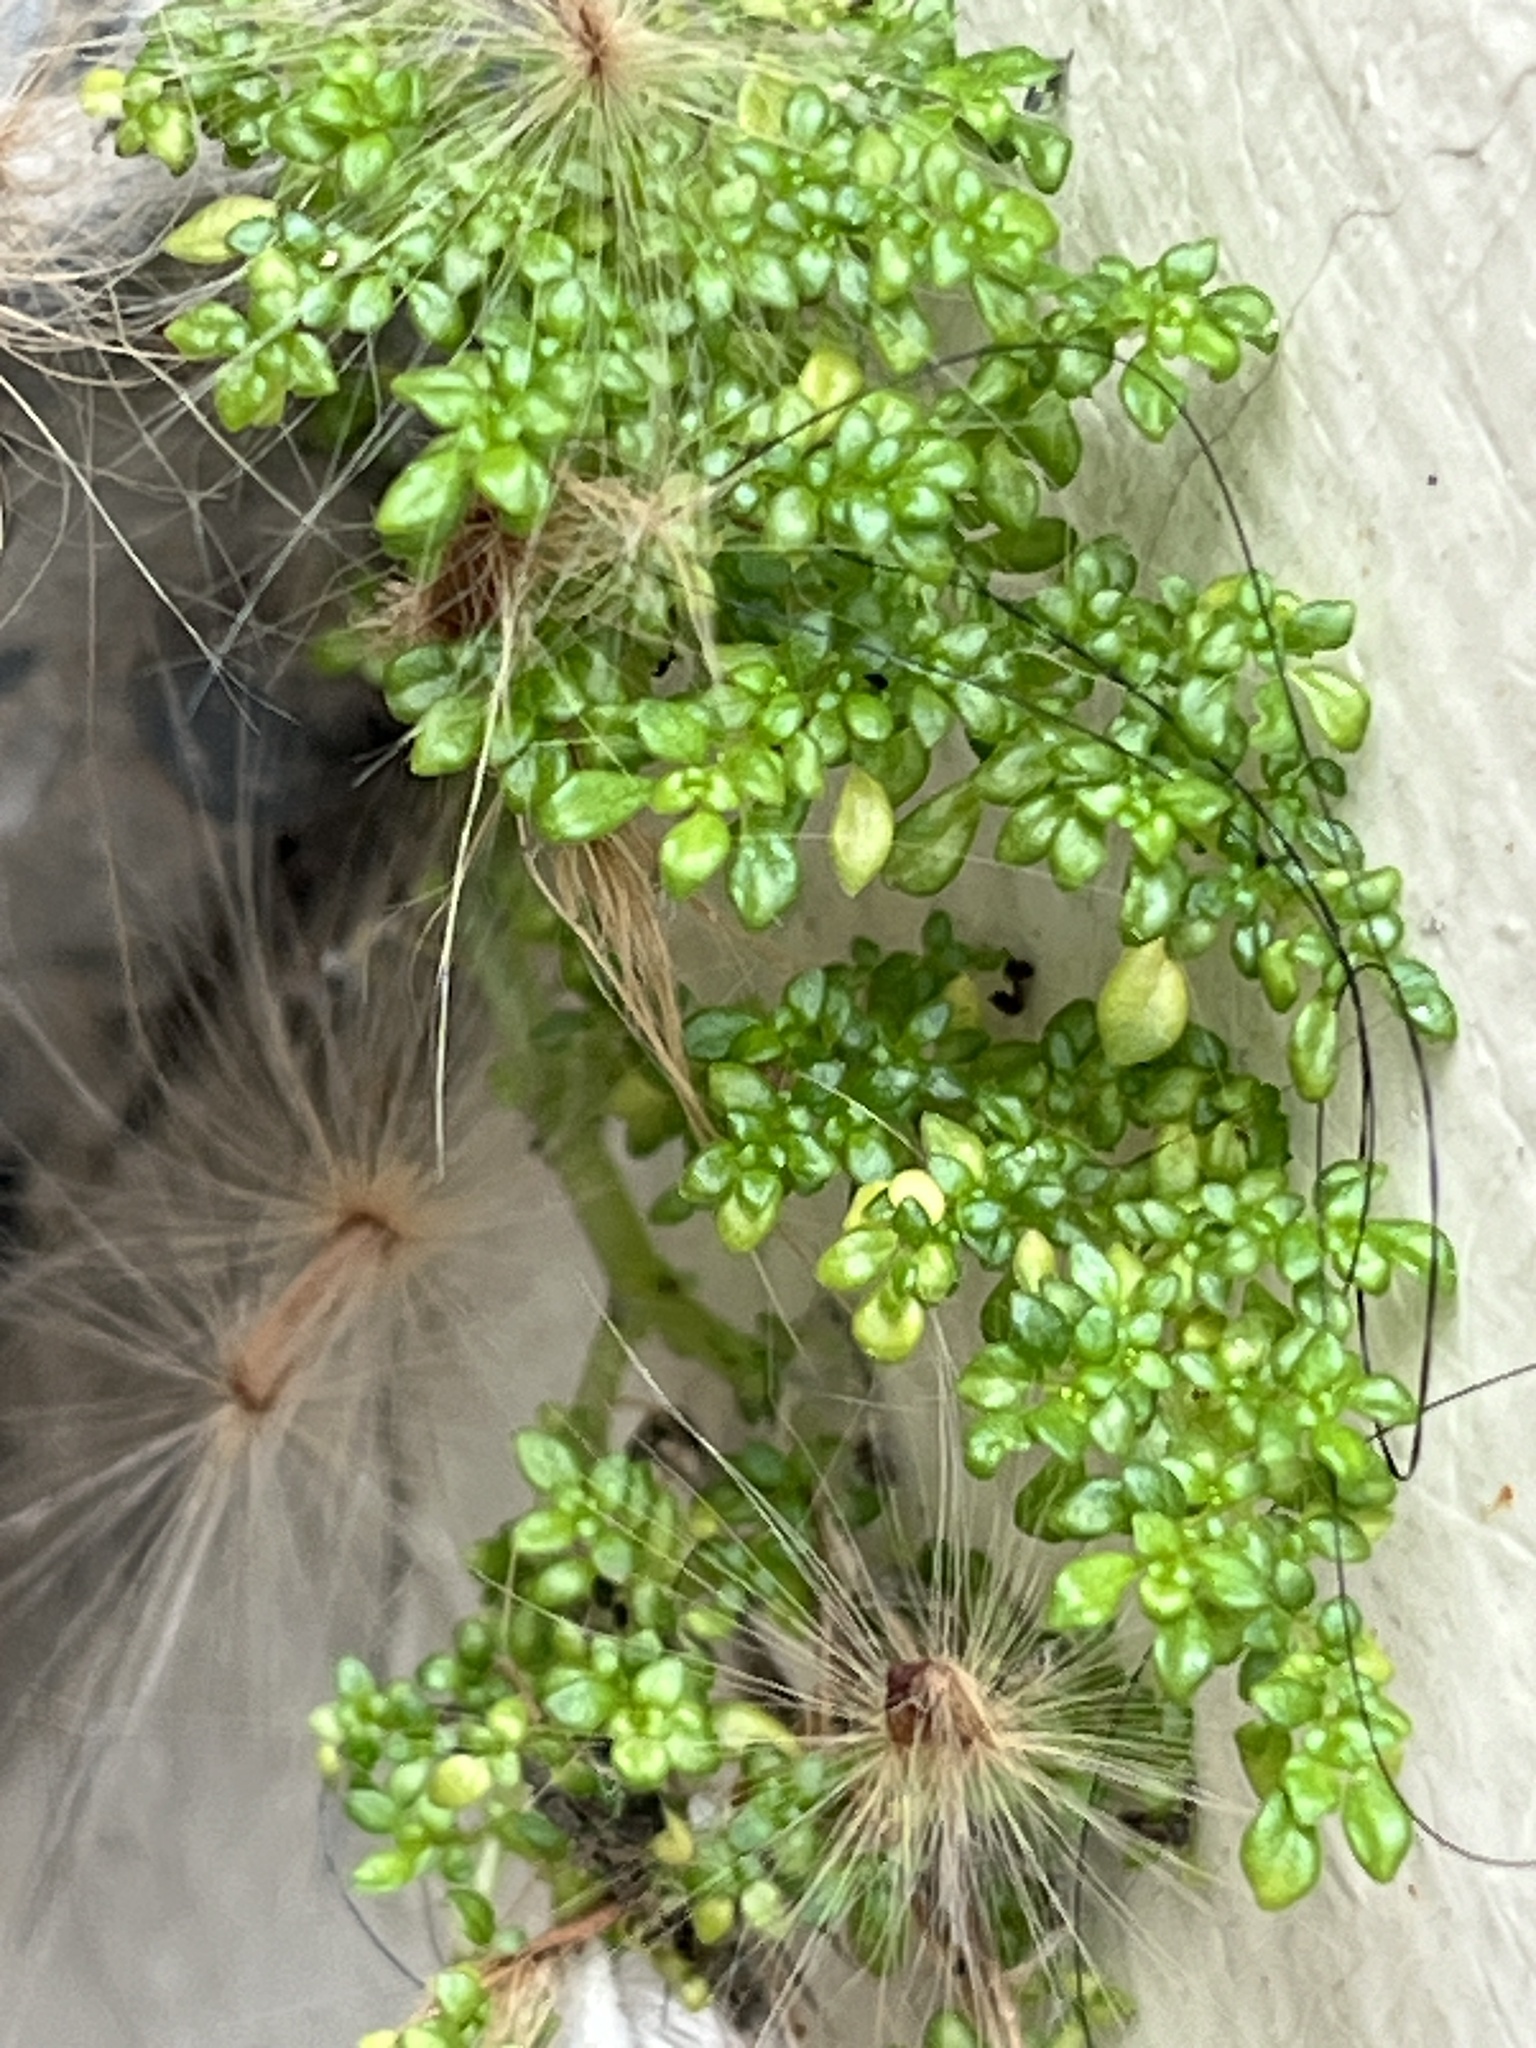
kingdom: Plantae
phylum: Tracheophyta
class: Magnoliopsida
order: Rosales
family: Urticaceae
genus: Pilea
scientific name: Pilea microphylla
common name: Artillery-plant
